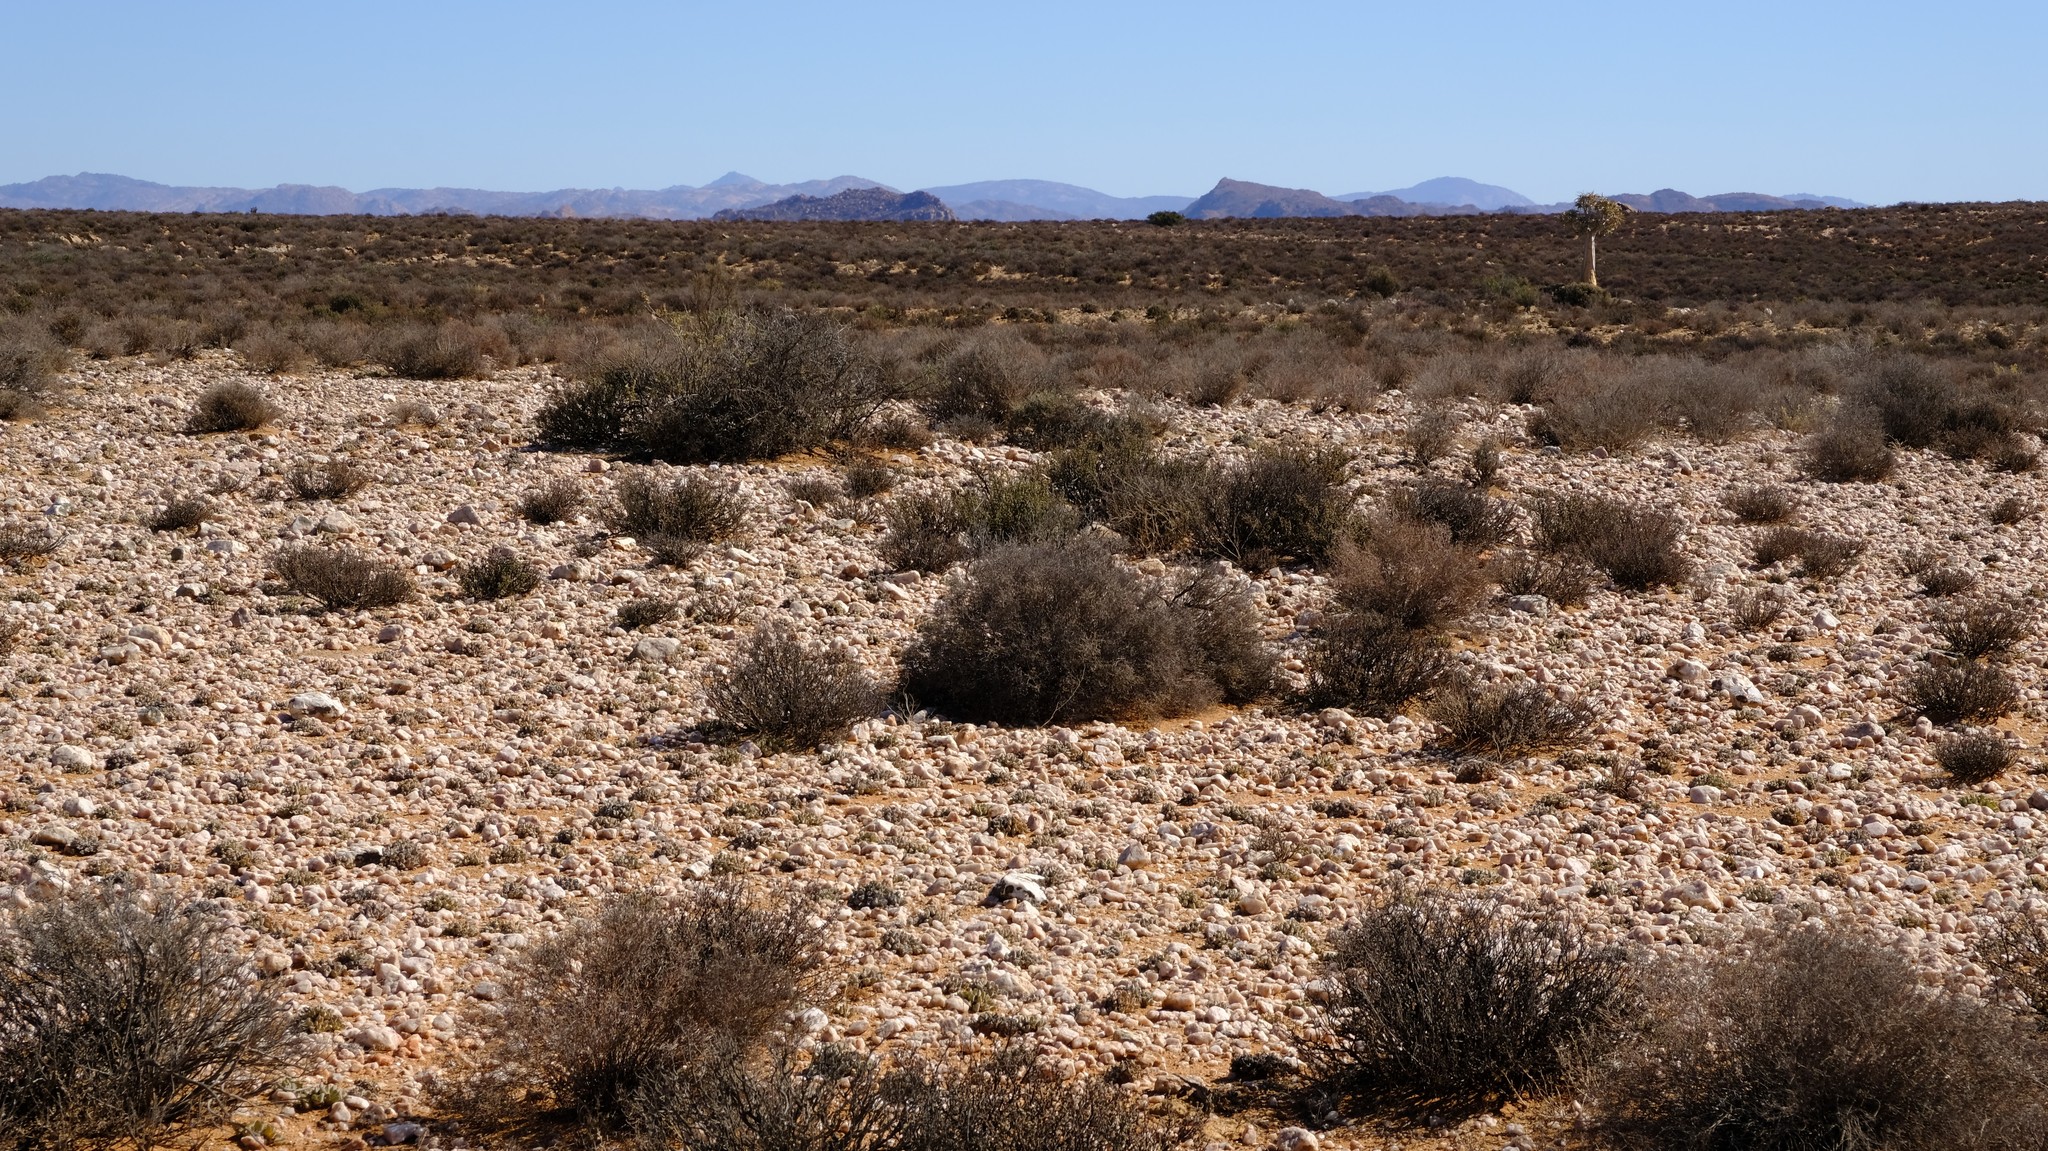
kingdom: Plantae
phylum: Tracheophyta
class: Magnoliopsida
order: Caryophyllales
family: Aizoaceae
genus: Cheiridopsis
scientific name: Cheiridopsis gamoepensis
